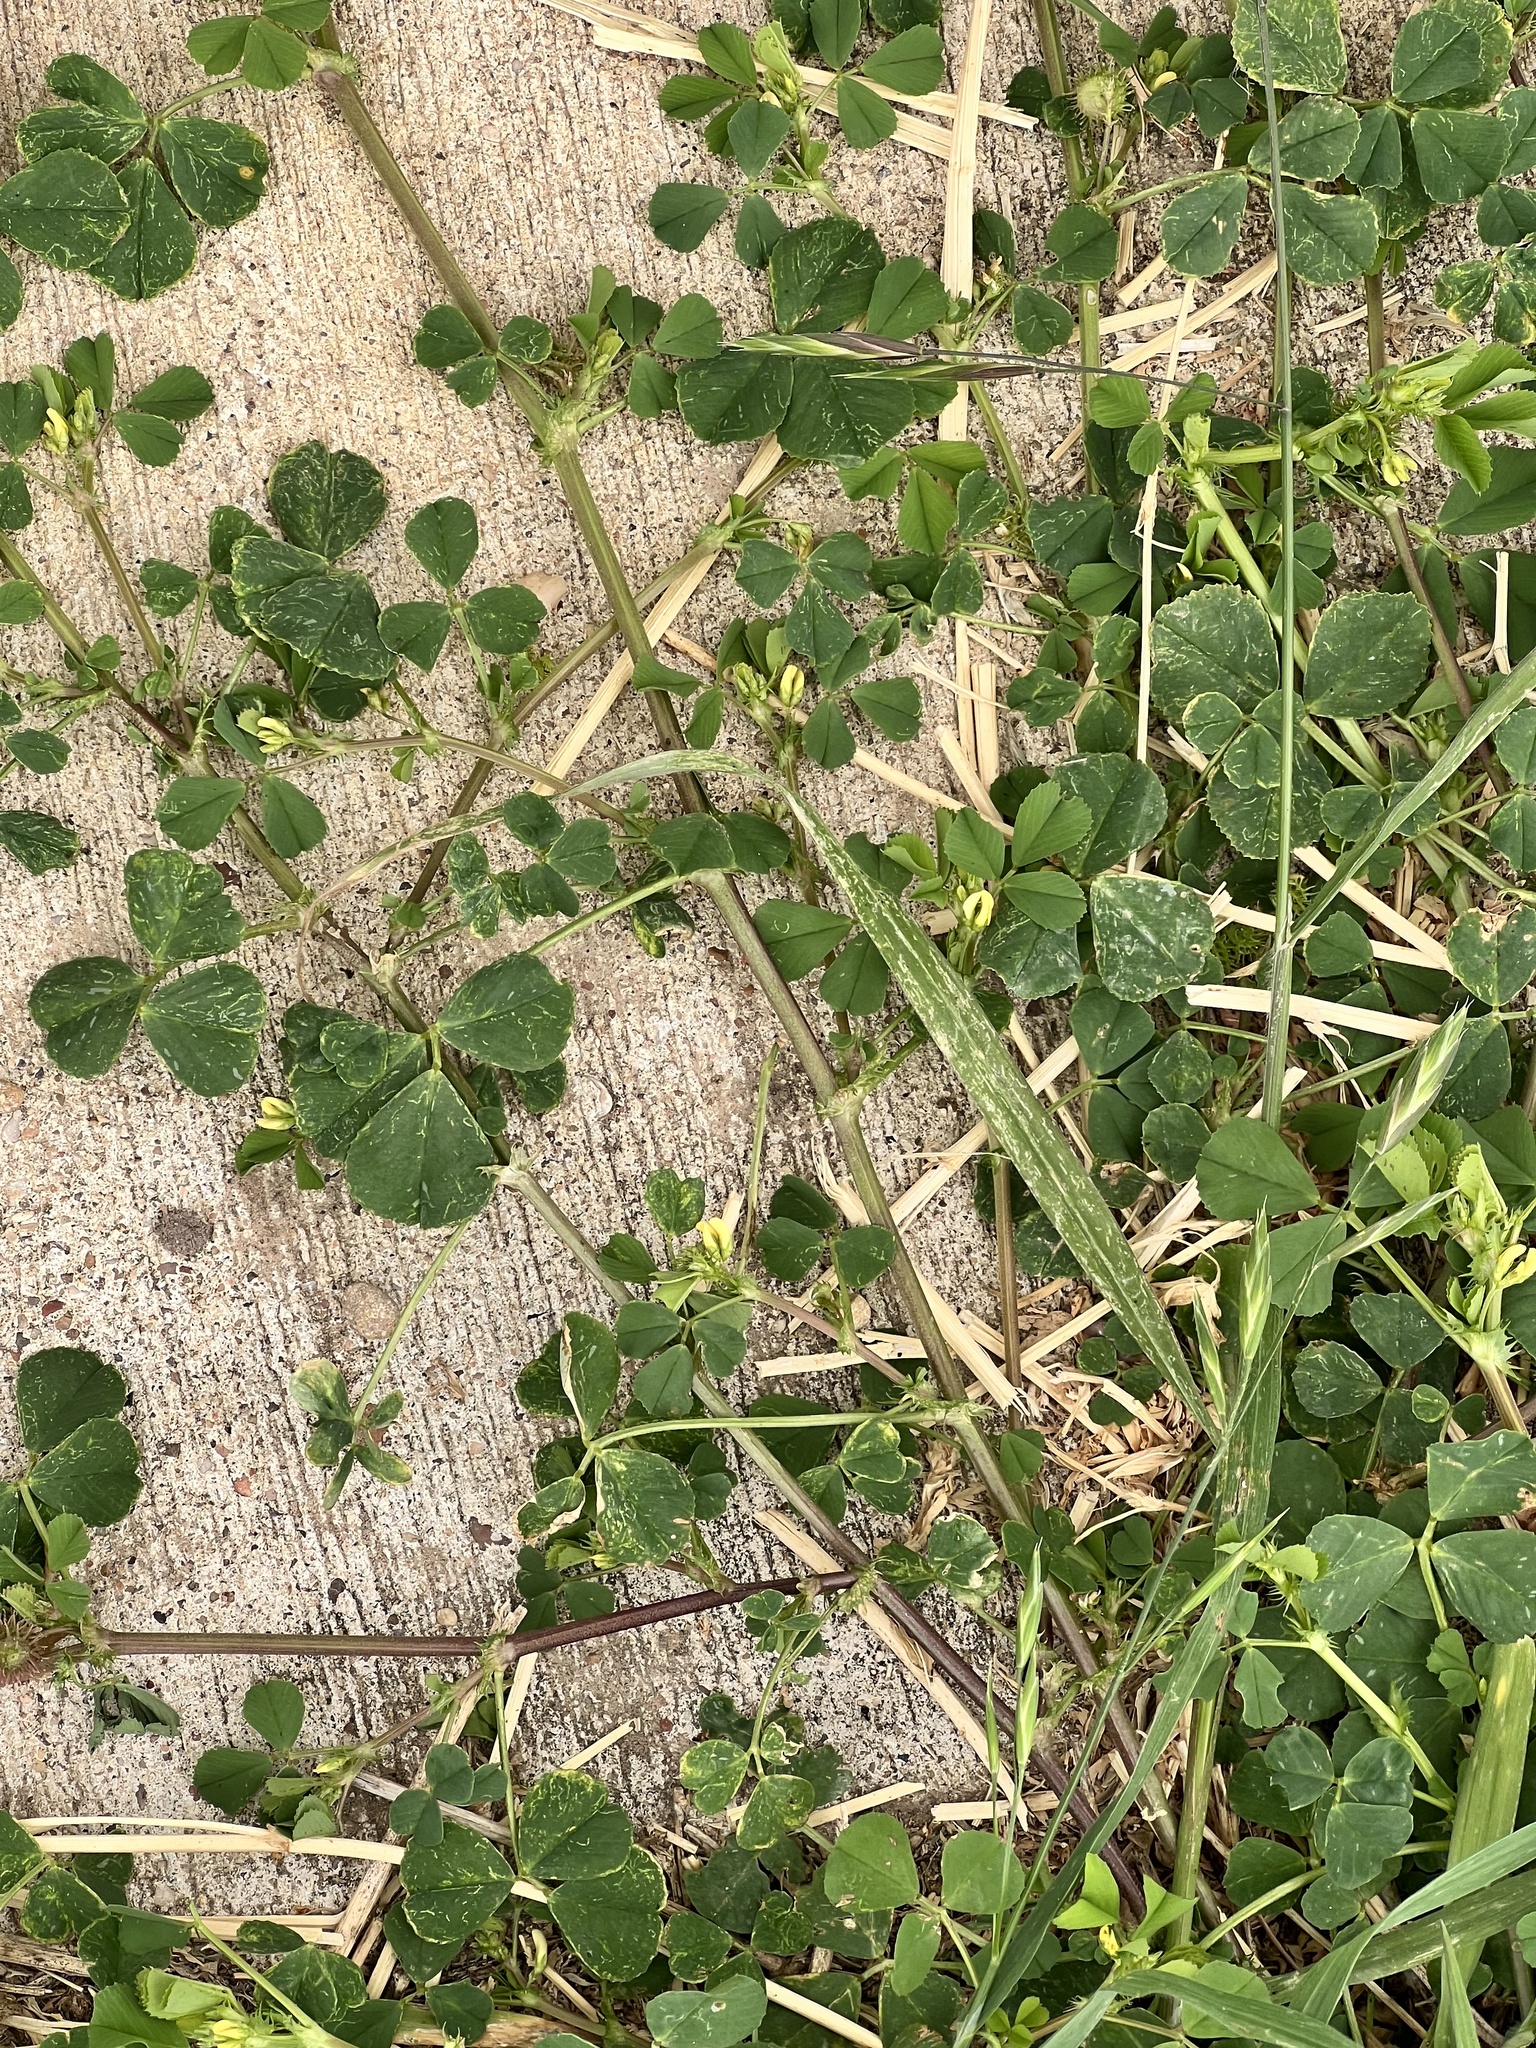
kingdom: Plantae
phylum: Tracheophyta
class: Magnoliopsida
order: Fabales
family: Fabaceae
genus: Medicago
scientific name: Medicago polymorpha
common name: Burclover
